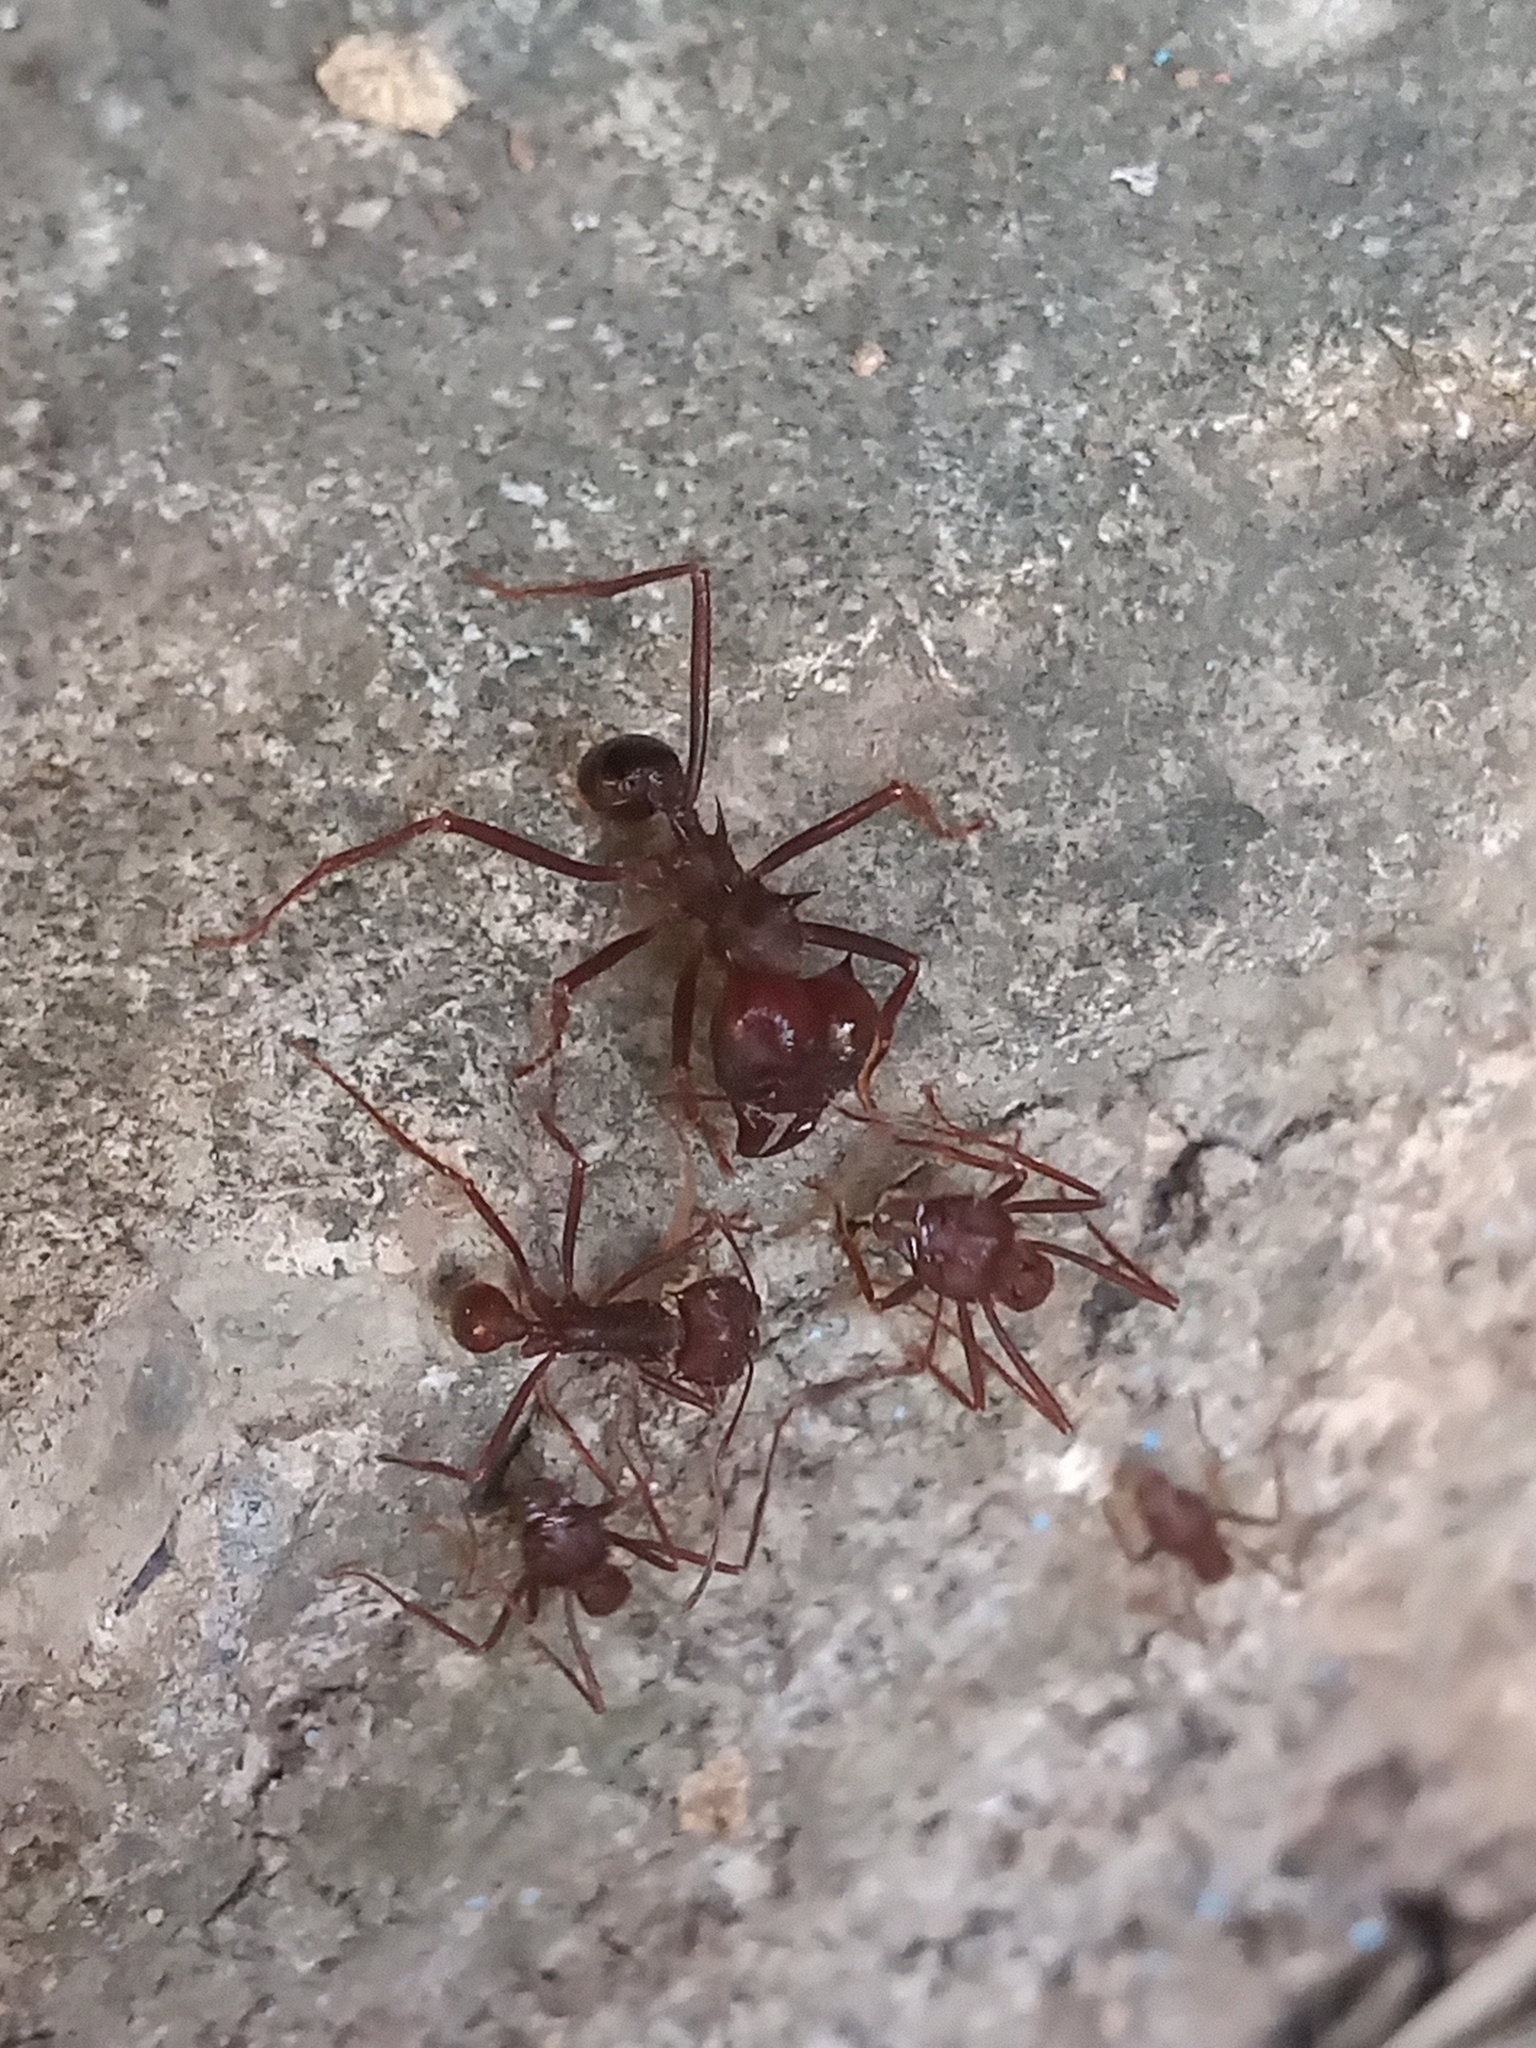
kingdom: Animalia
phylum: Arthropoda
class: Insecta
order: Hymenoptera
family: Formicidae
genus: Atta
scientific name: Atta mexicana
